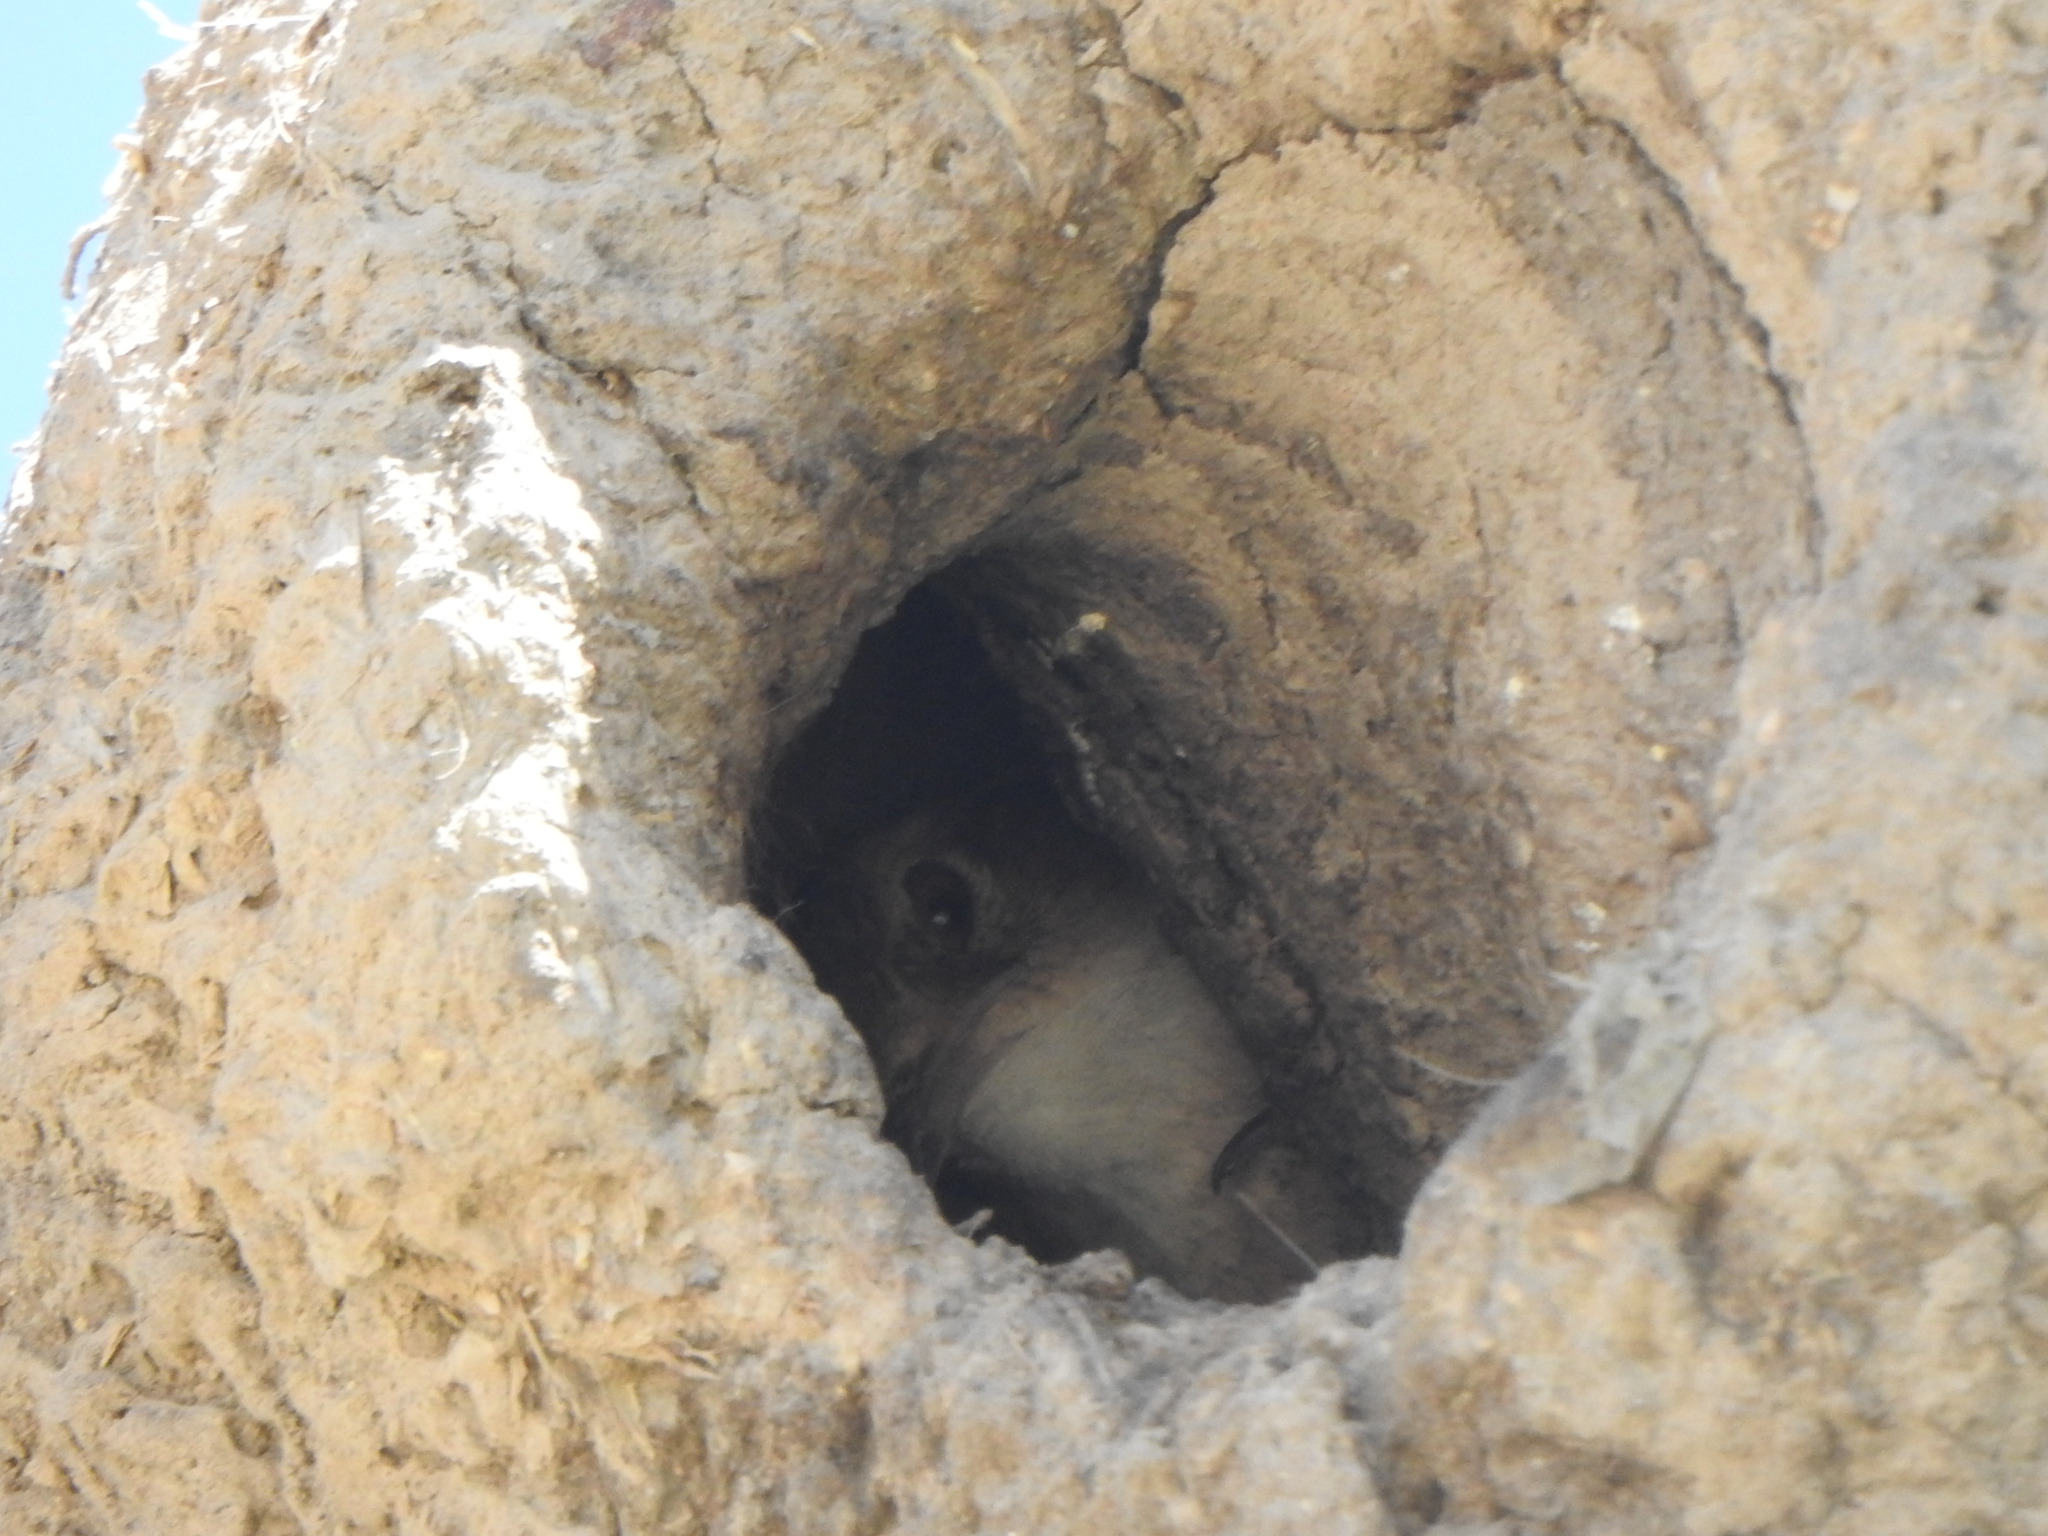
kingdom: Animalia
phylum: Chordata
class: Aves
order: Passeriformes
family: Furnariidae
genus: Furnarius
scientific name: Furnarius rufus
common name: Rufous hornero
